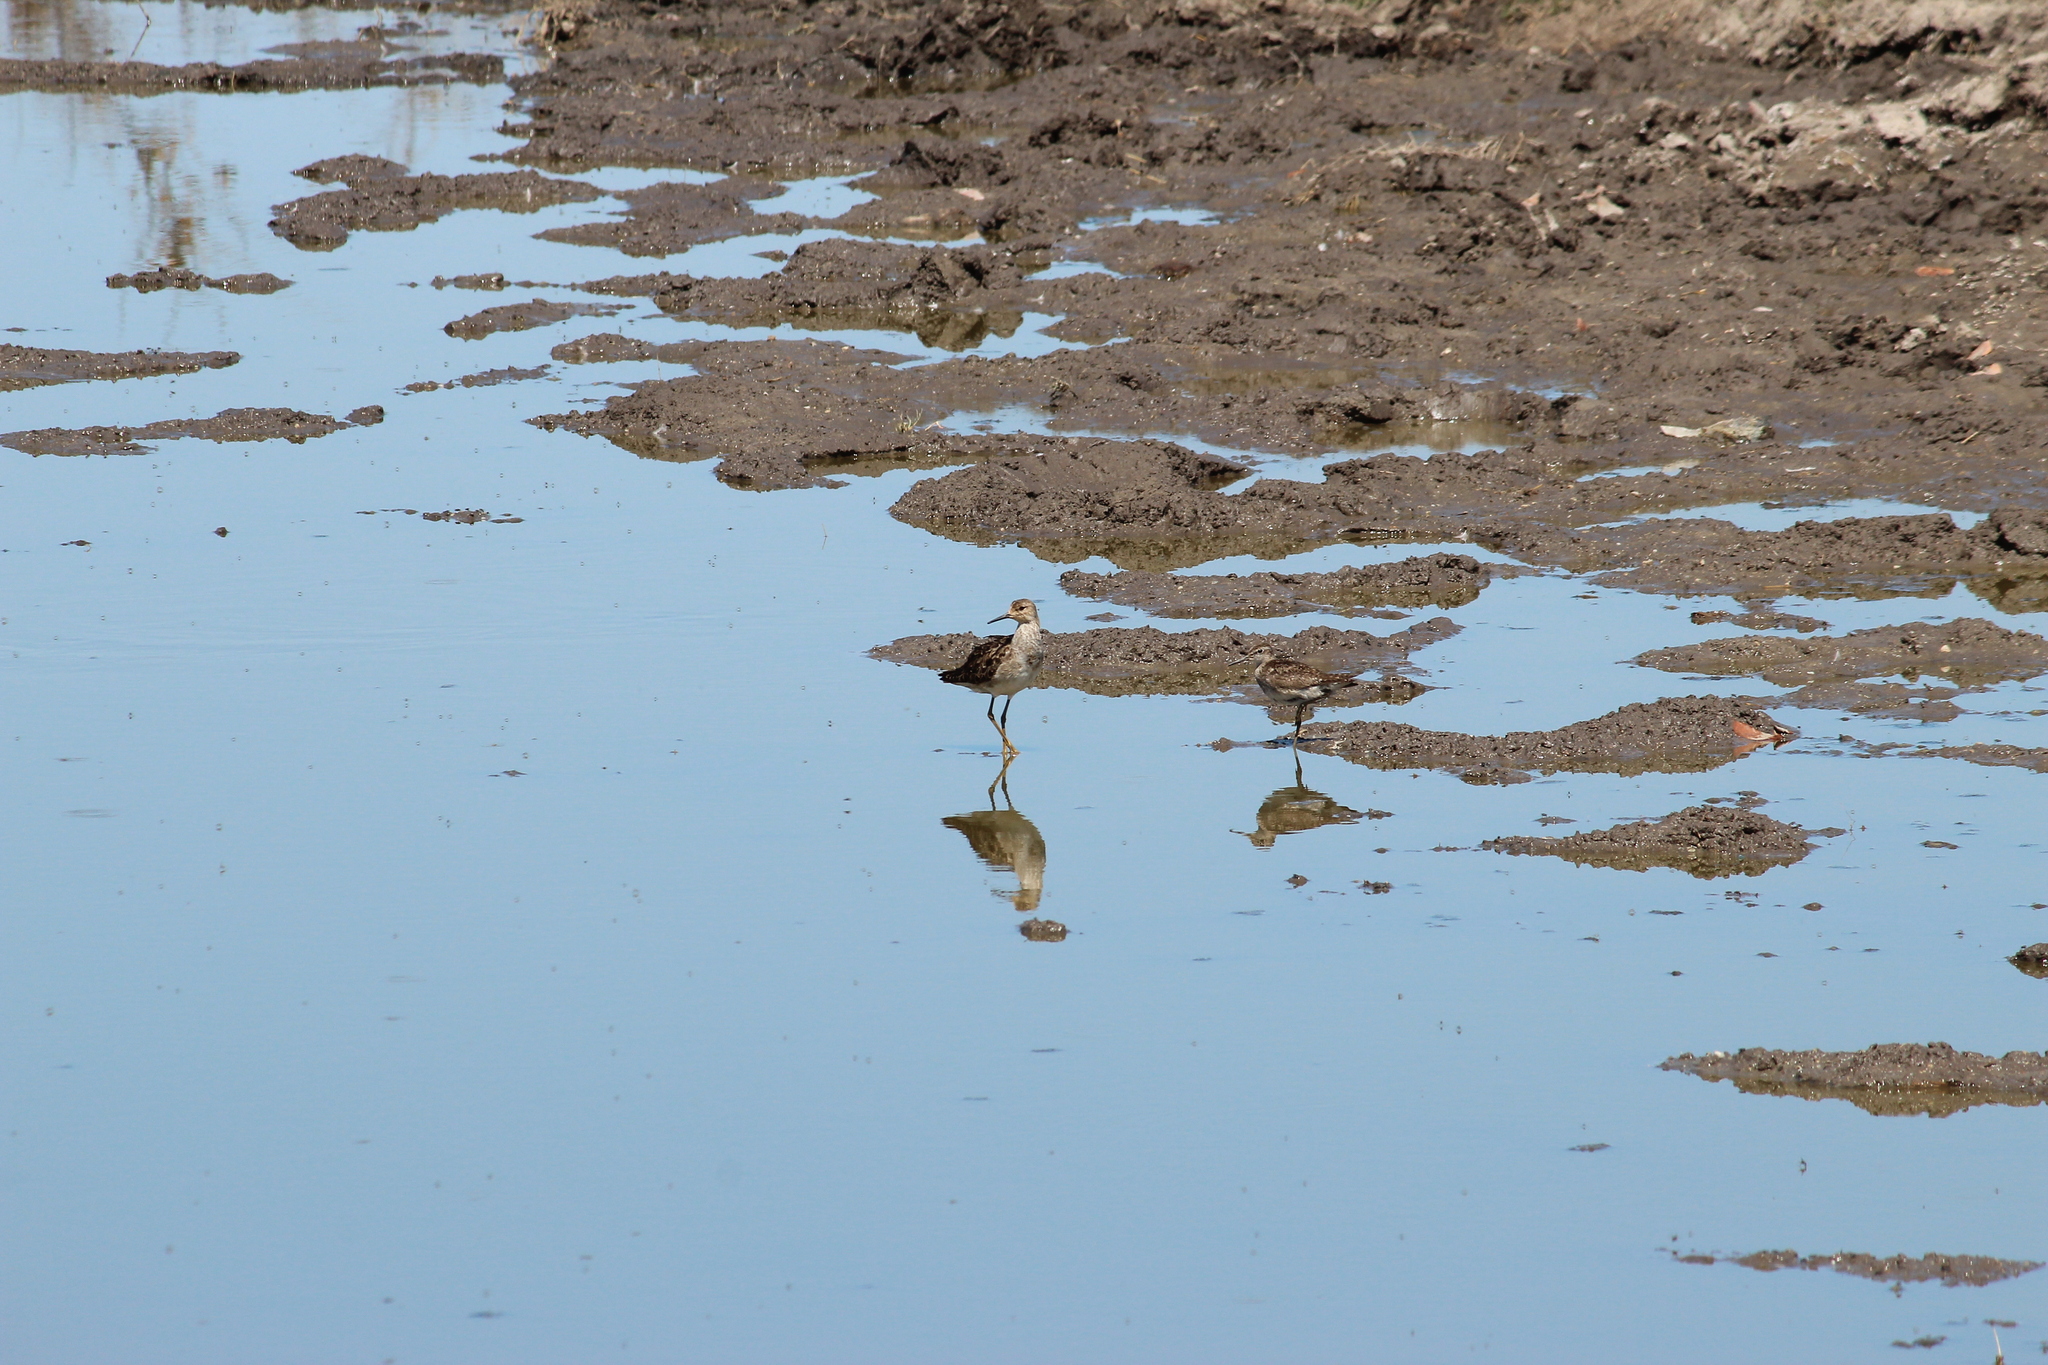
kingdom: Animalia
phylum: Chordata
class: Aves
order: Charadriiformes
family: Scolopacidae
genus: Tringa
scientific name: Tringa glareola
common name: Wood sandpiper
